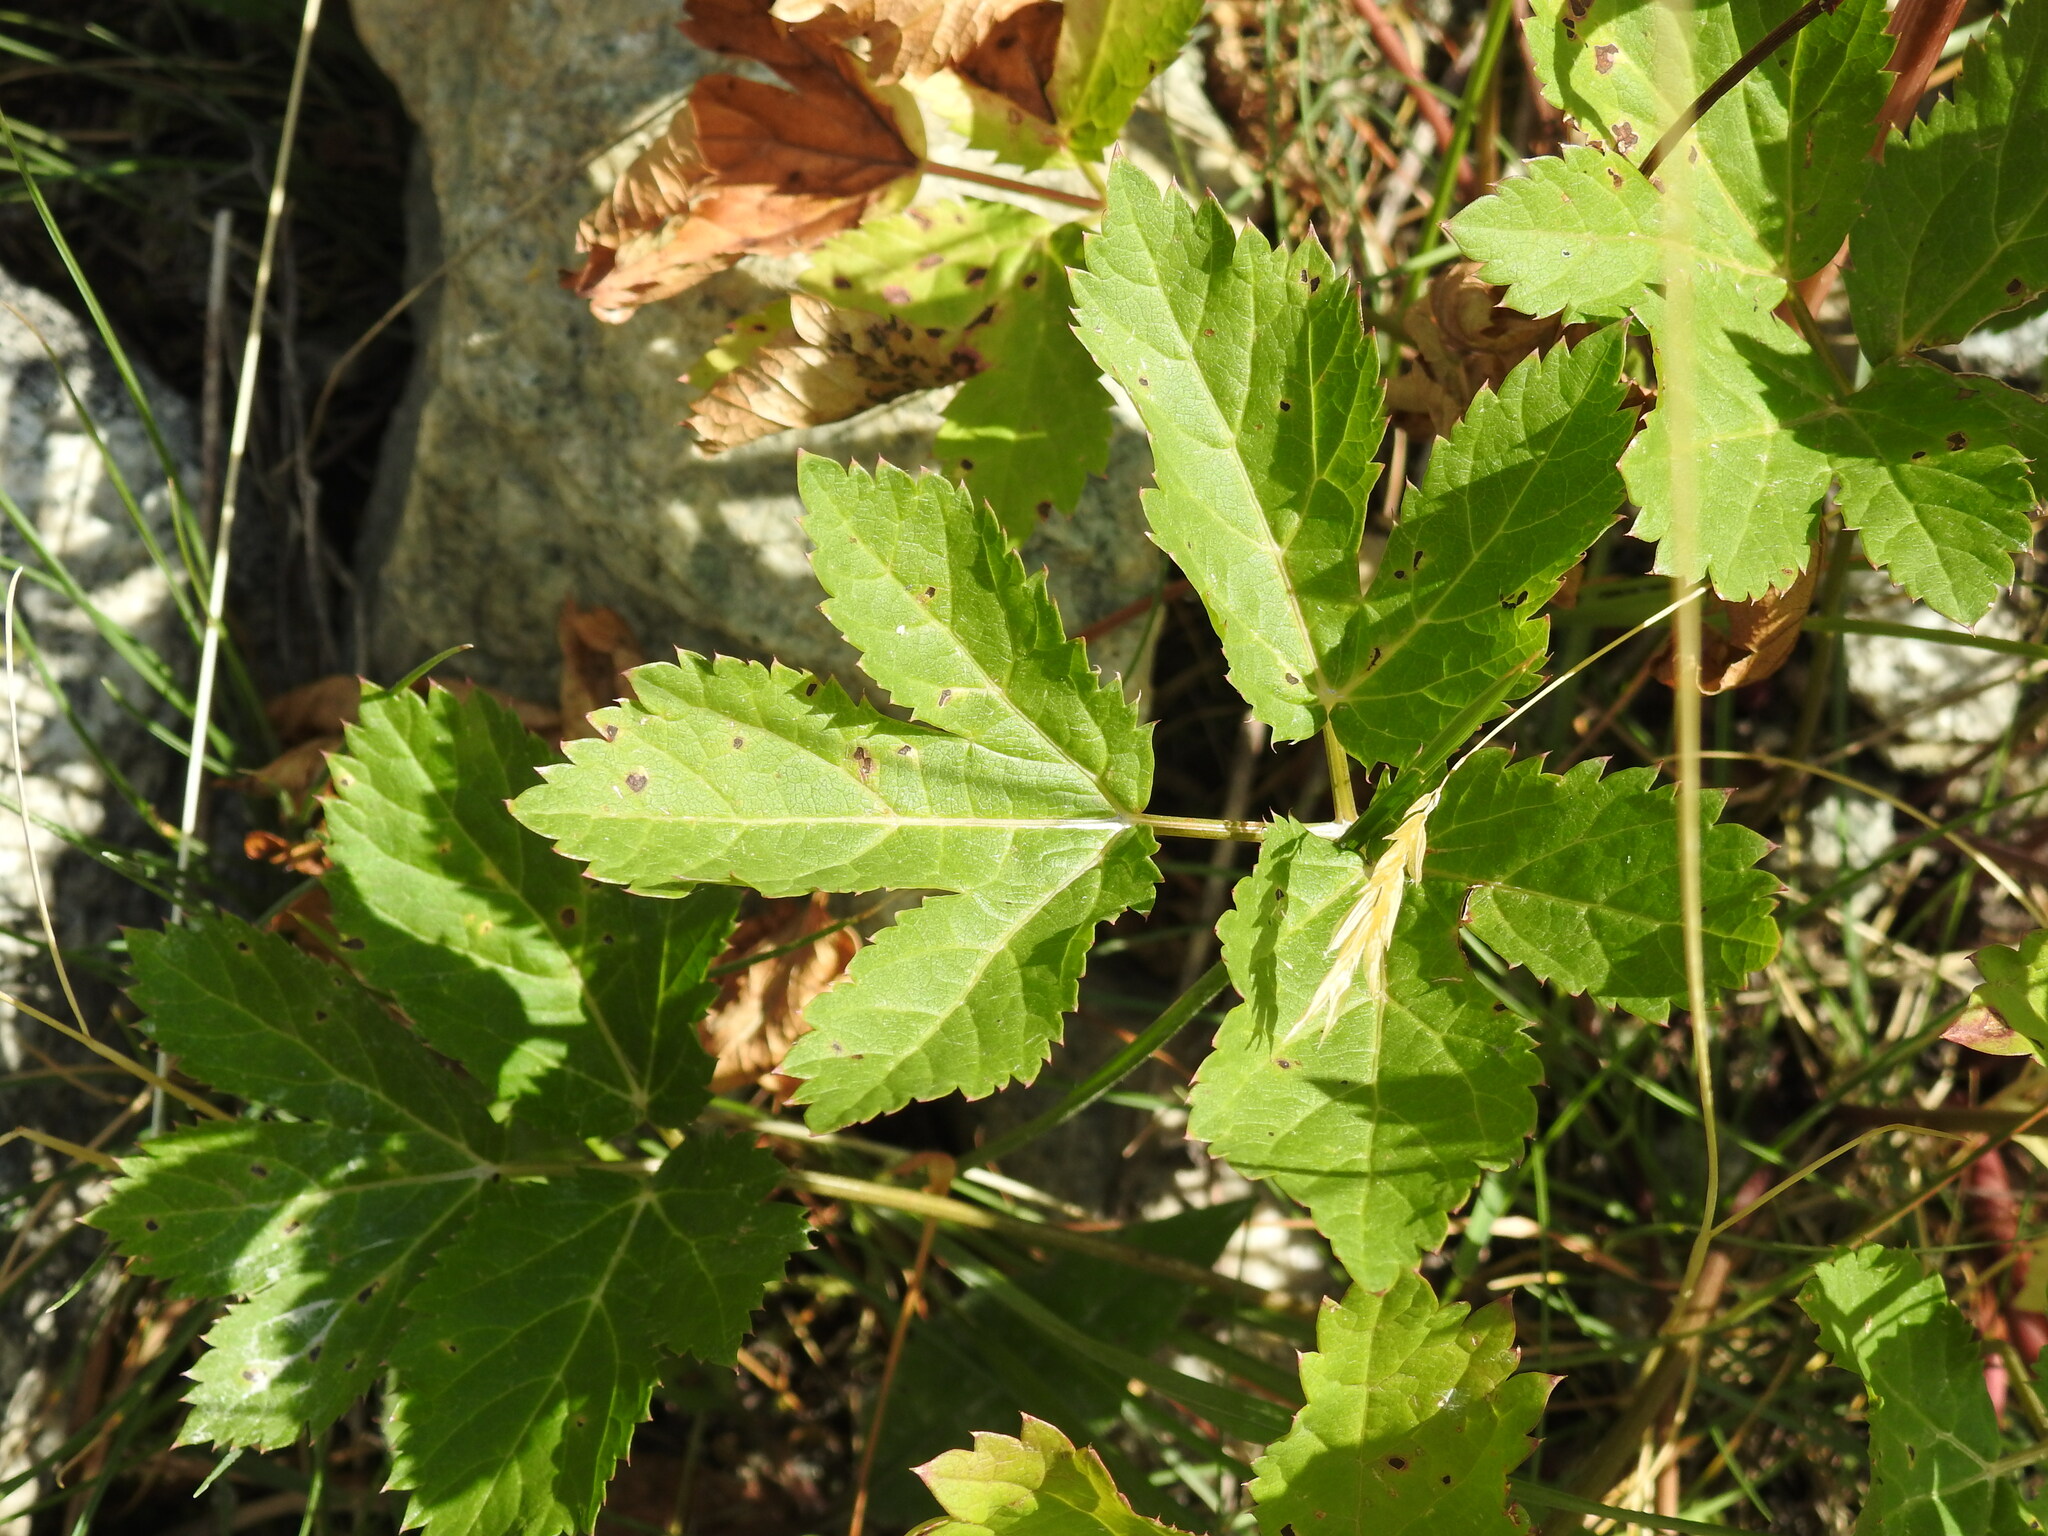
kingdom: Plantae
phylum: Tracheophyta
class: Magnoliopsida
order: Apiales
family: Apiaceae
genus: Imperatoria
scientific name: Imperatoria ostruthium
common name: Masterwort
